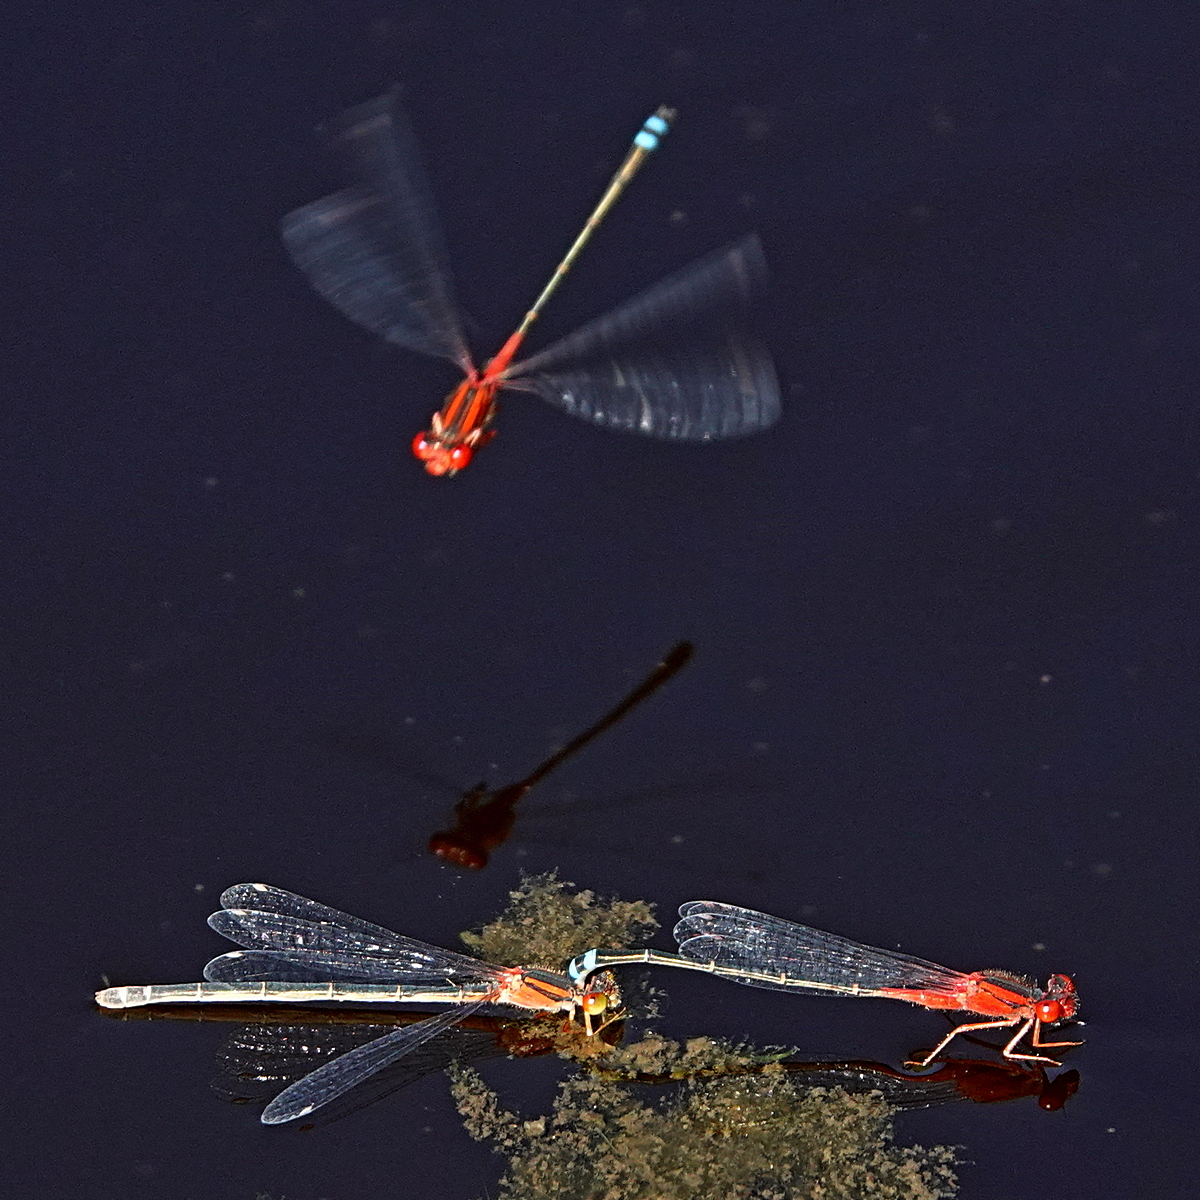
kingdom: Animalia
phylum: Arthropoda
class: Insecta
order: Odonata
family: Coenagrionidae
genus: Xanthagrion
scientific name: Xanthagrion erythroneurum
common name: Red and blue damsel
